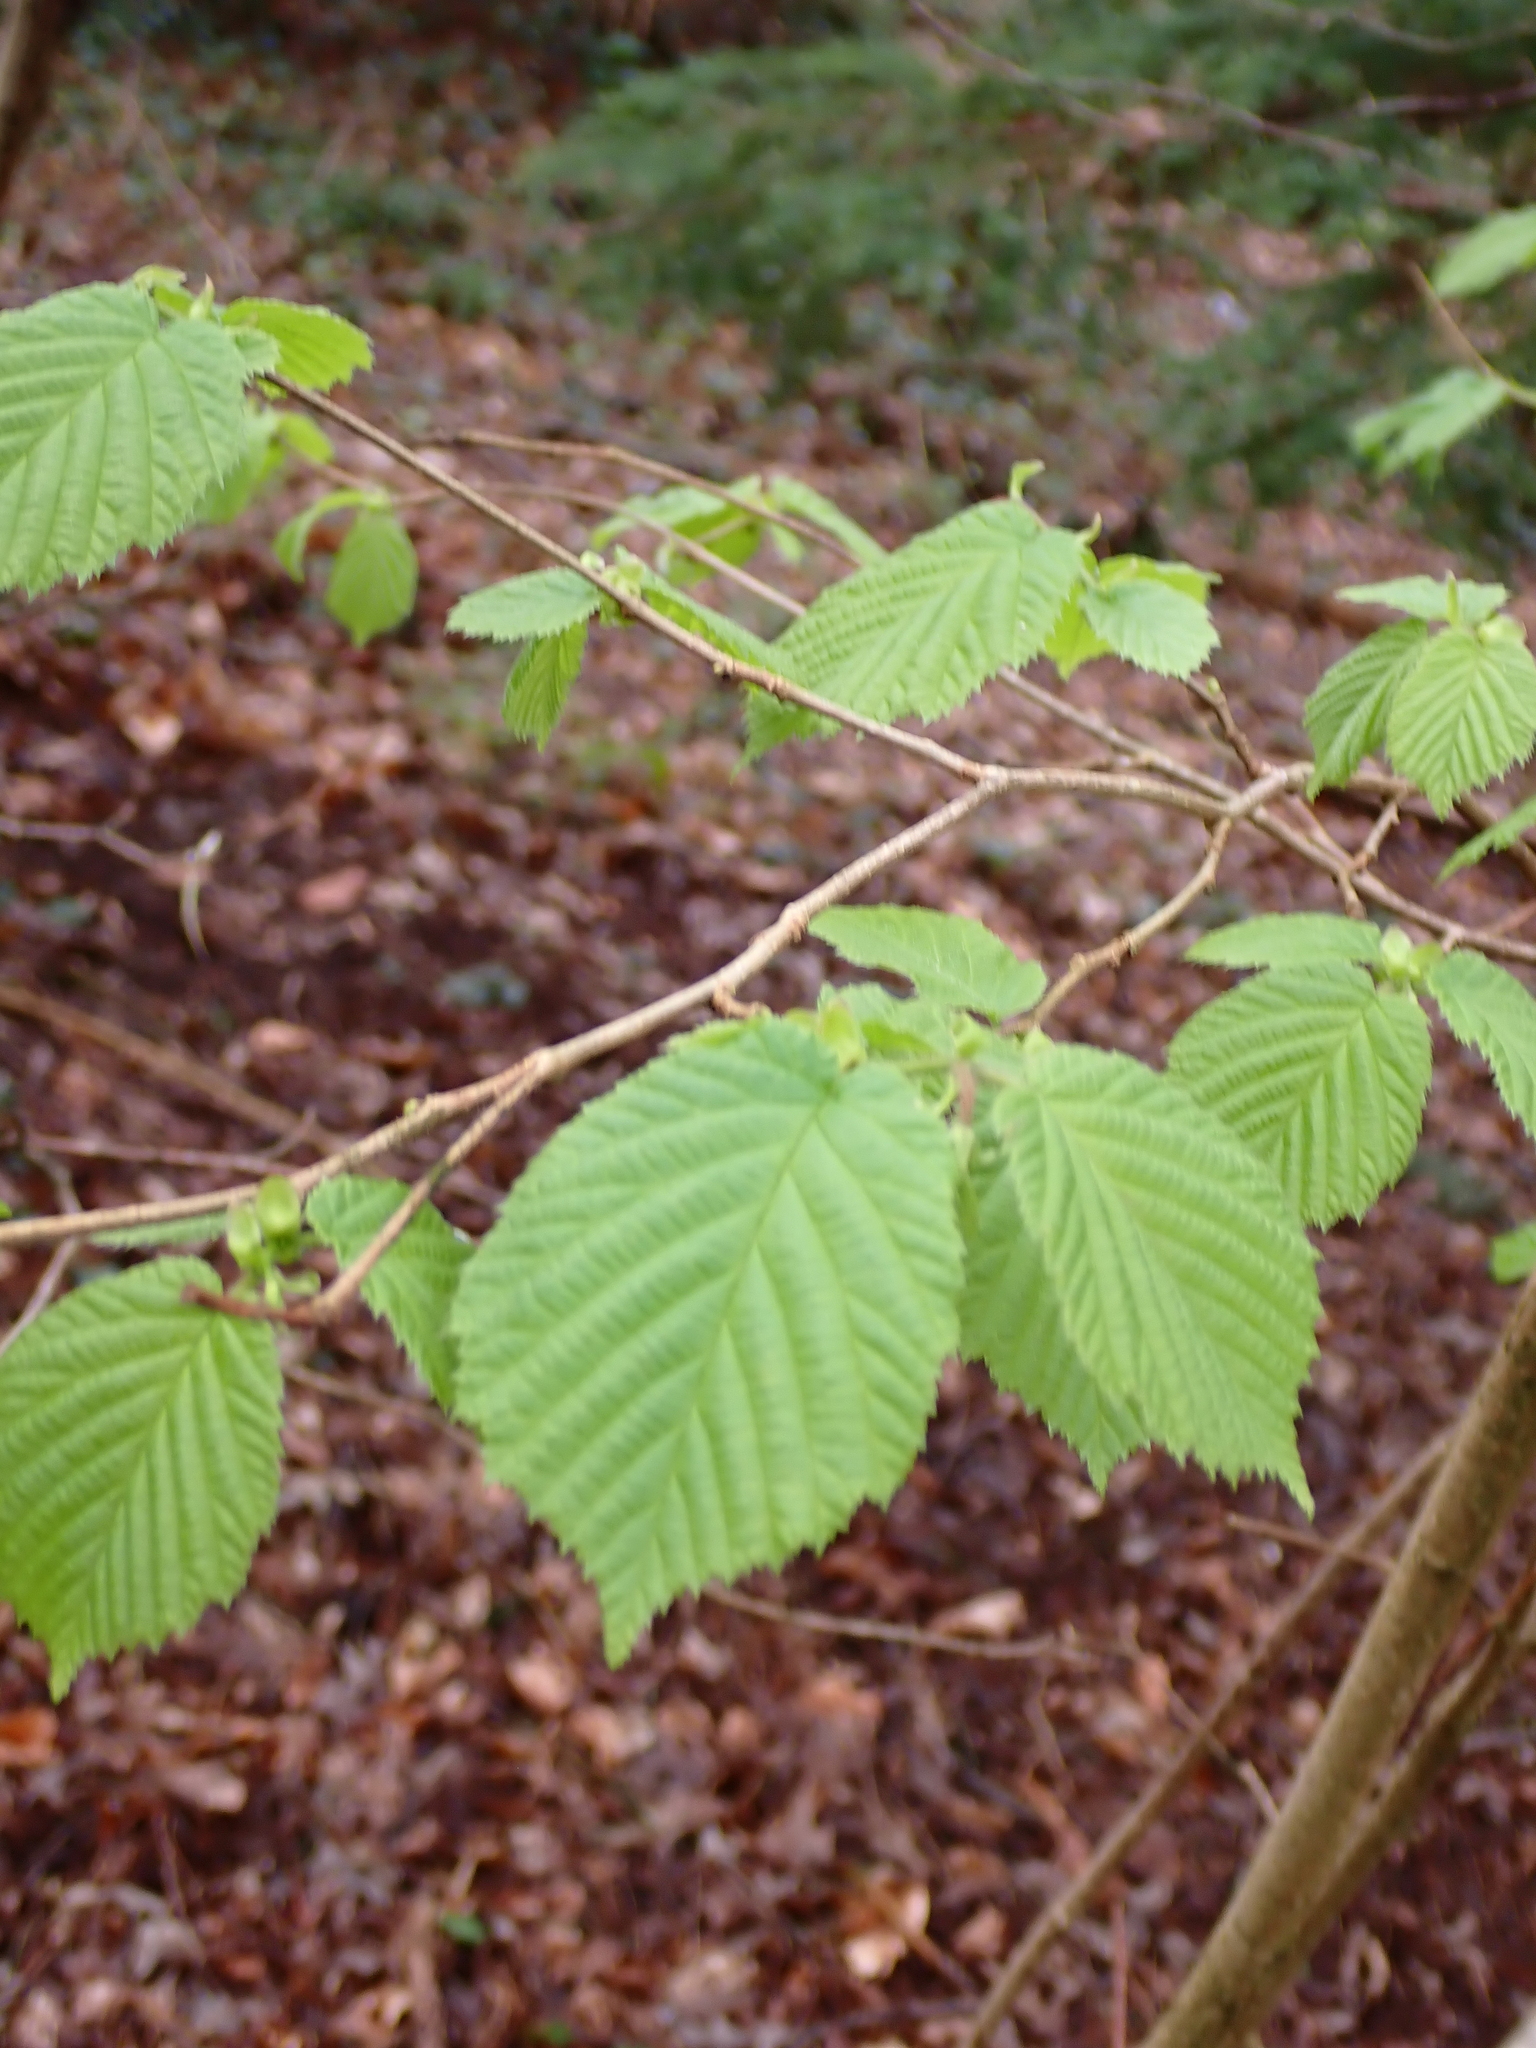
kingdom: Plantae
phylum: Tracheophyta
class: Magnoliopsida
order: Fagales
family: Betulaceae
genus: Corylus
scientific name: Corylus avellana
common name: European hazel
